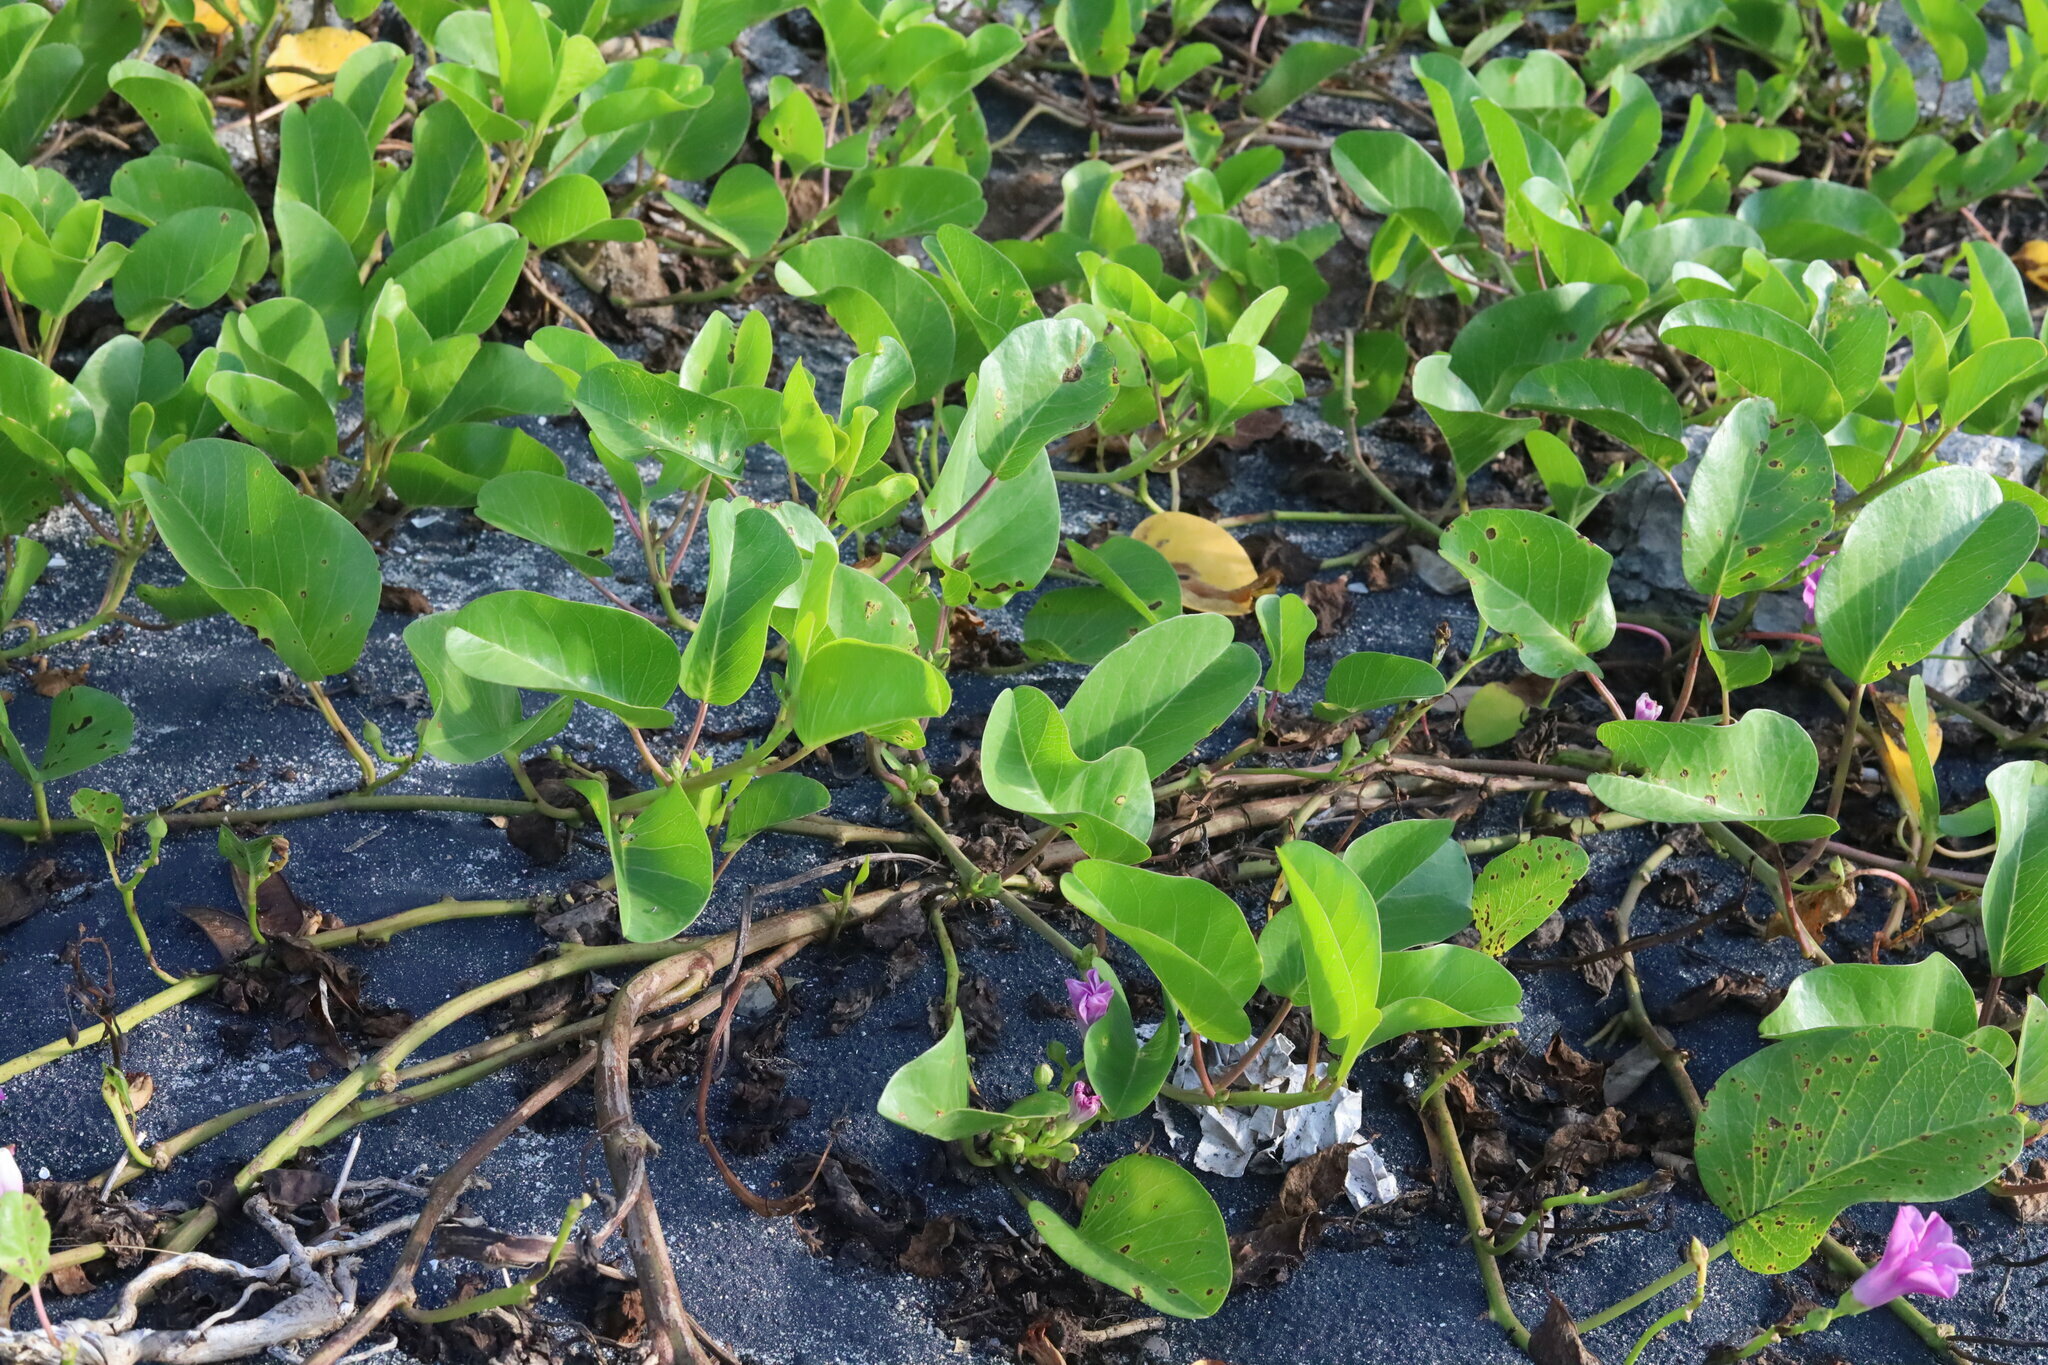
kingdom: Plantae
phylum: Tracheophyta
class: Magnoliopsida
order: Solanales
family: Convolvulaceae
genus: Ipomoea
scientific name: Ipomoea pes-caprae
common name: Beach morning glory
